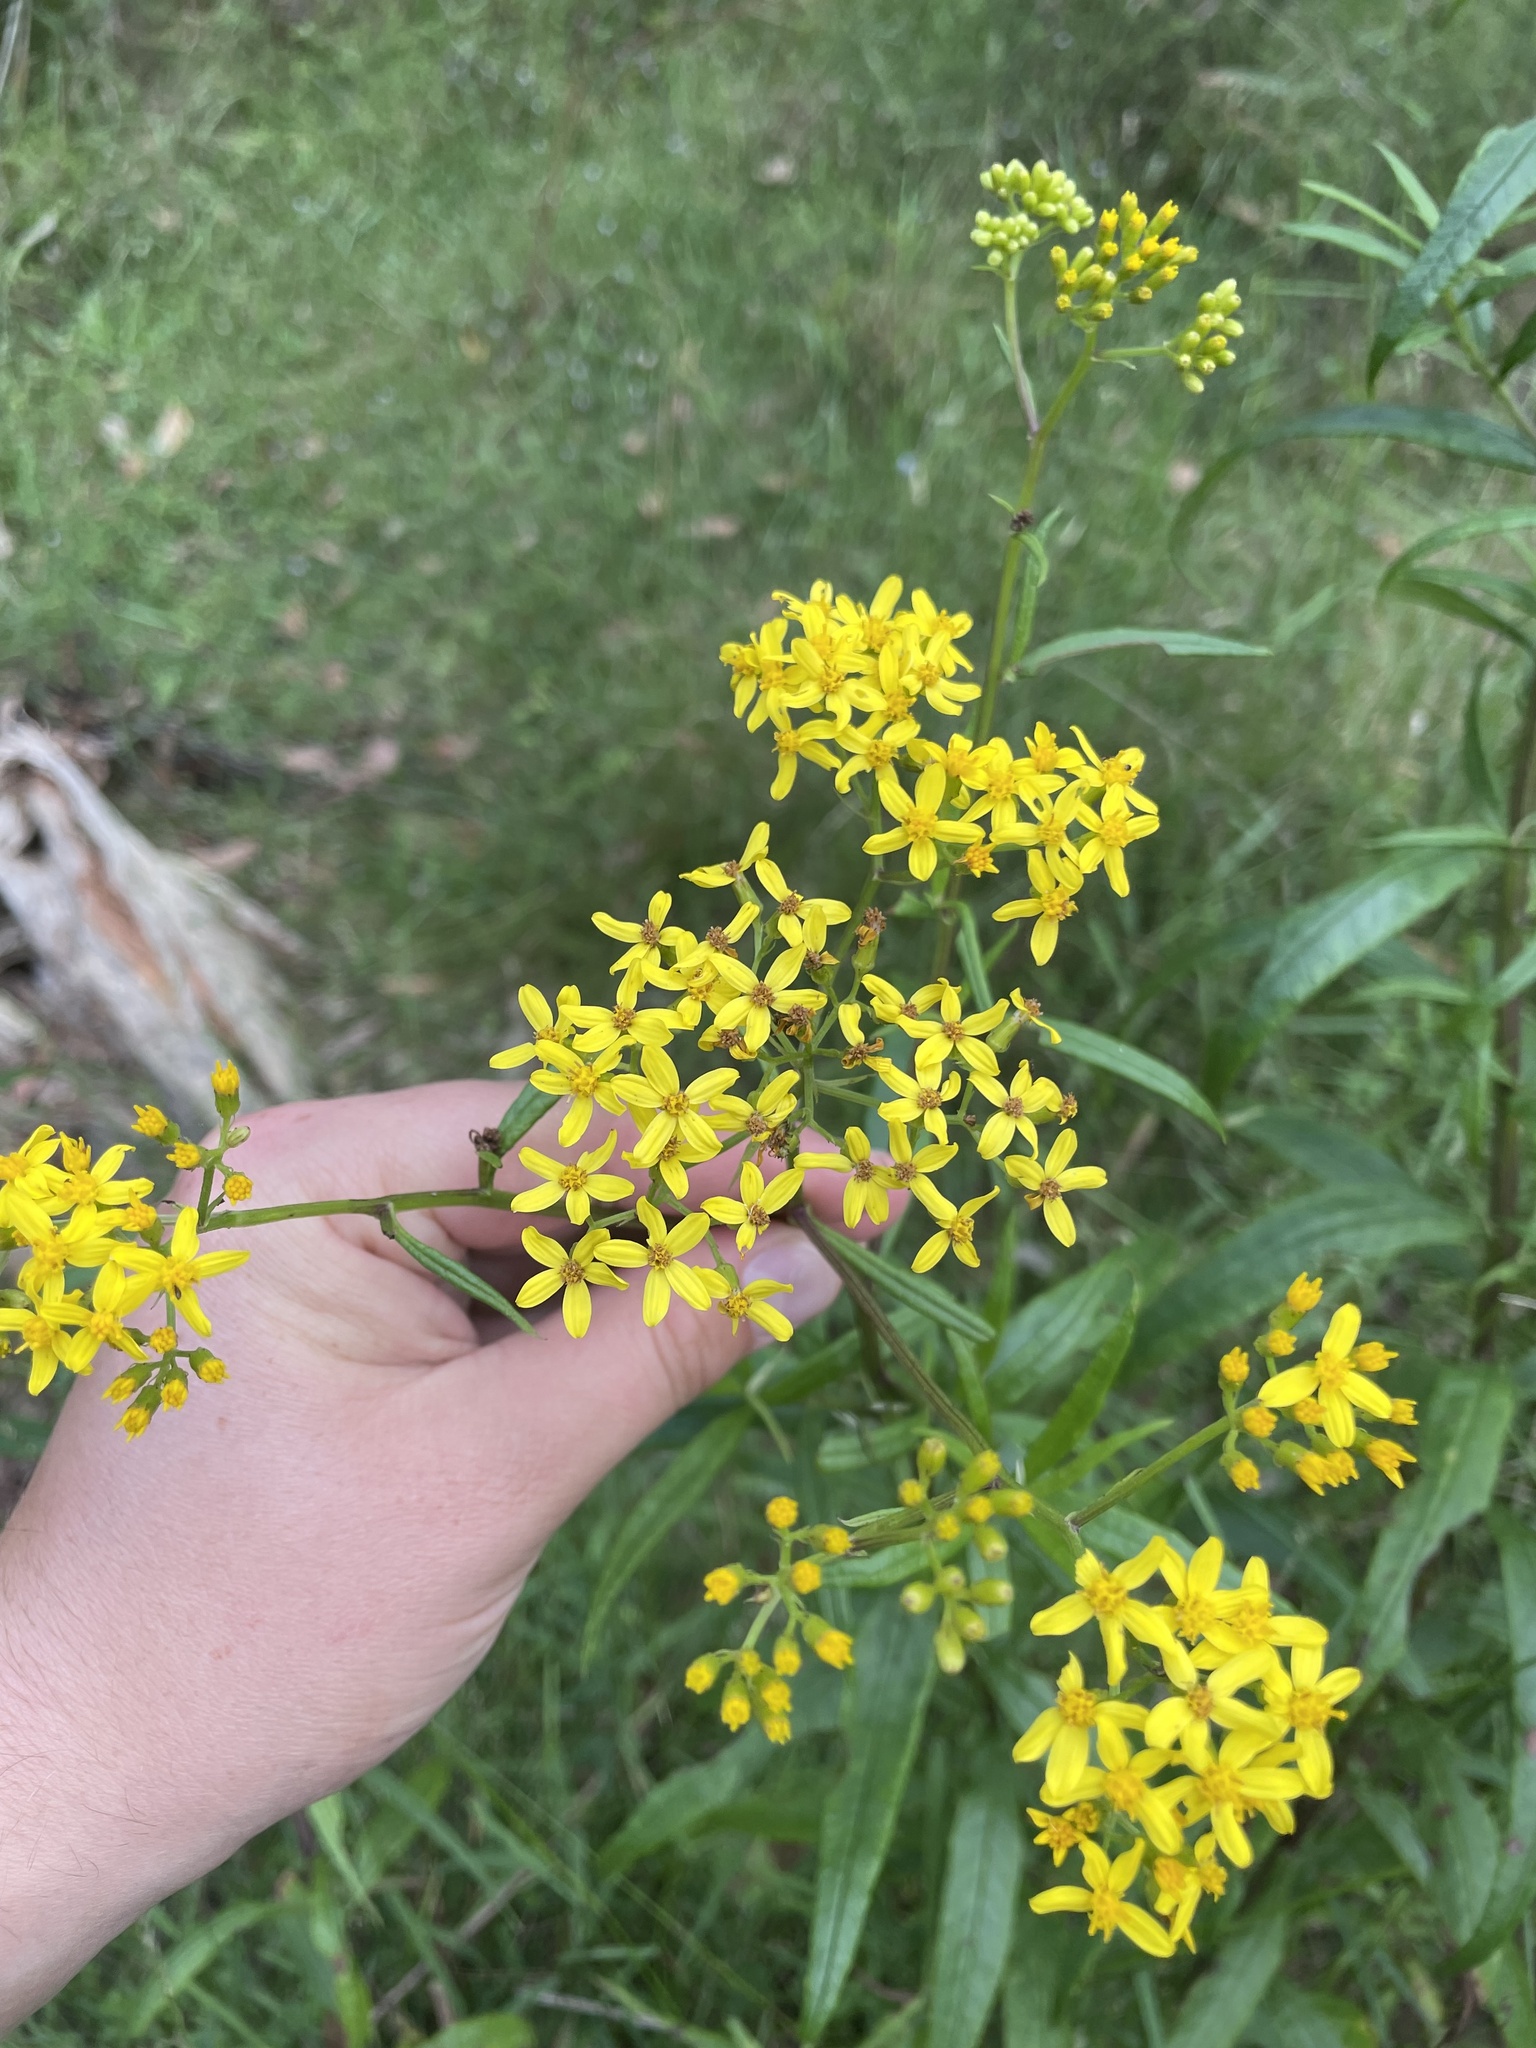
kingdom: Plantae
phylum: Tracheophyta
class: Magnoliopsida
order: Asterales
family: Asteraceae
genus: Senecio
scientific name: Senecio linearifolius
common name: Fireweed groundsel
